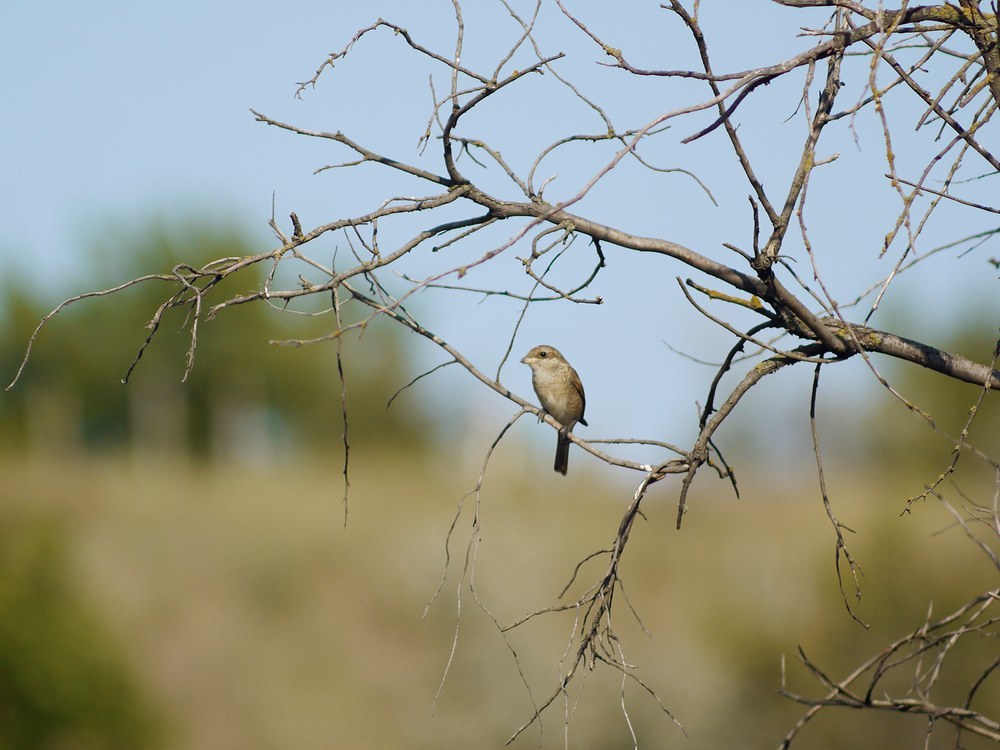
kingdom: Animalia
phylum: Chordata
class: Aves
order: Passeriformes
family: Laniidae
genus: Lanius
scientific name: Lanius collurio
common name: Red-backed shrike
